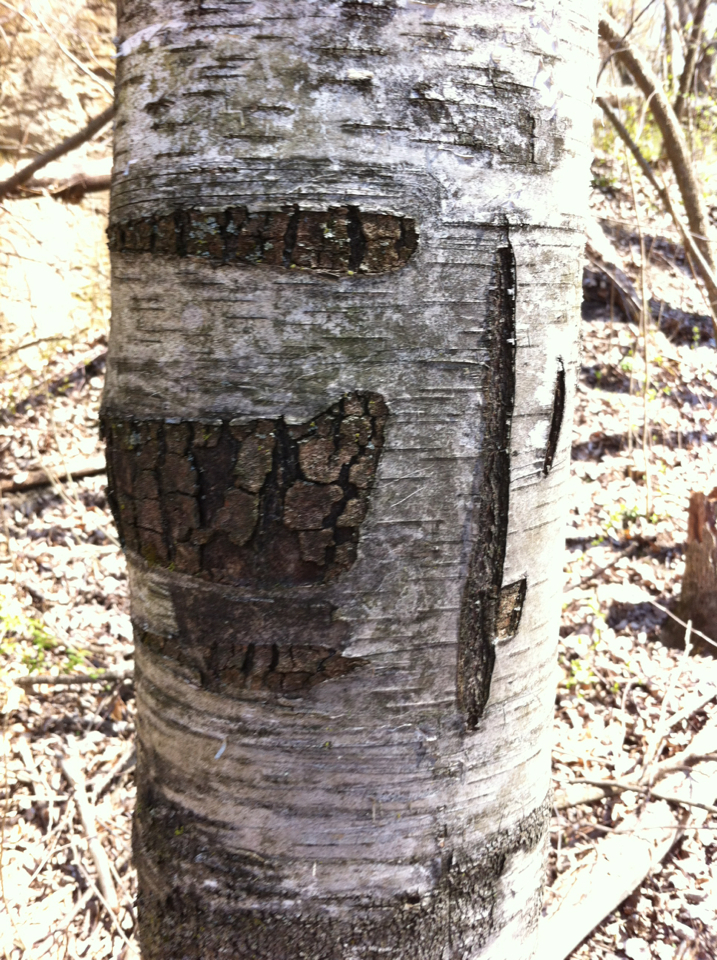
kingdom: Plantae
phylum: Tracheophyta
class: Magnoliopsida
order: Fagales
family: Betulaceae
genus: Betula
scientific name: Betula populifolia
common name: Fire birch
